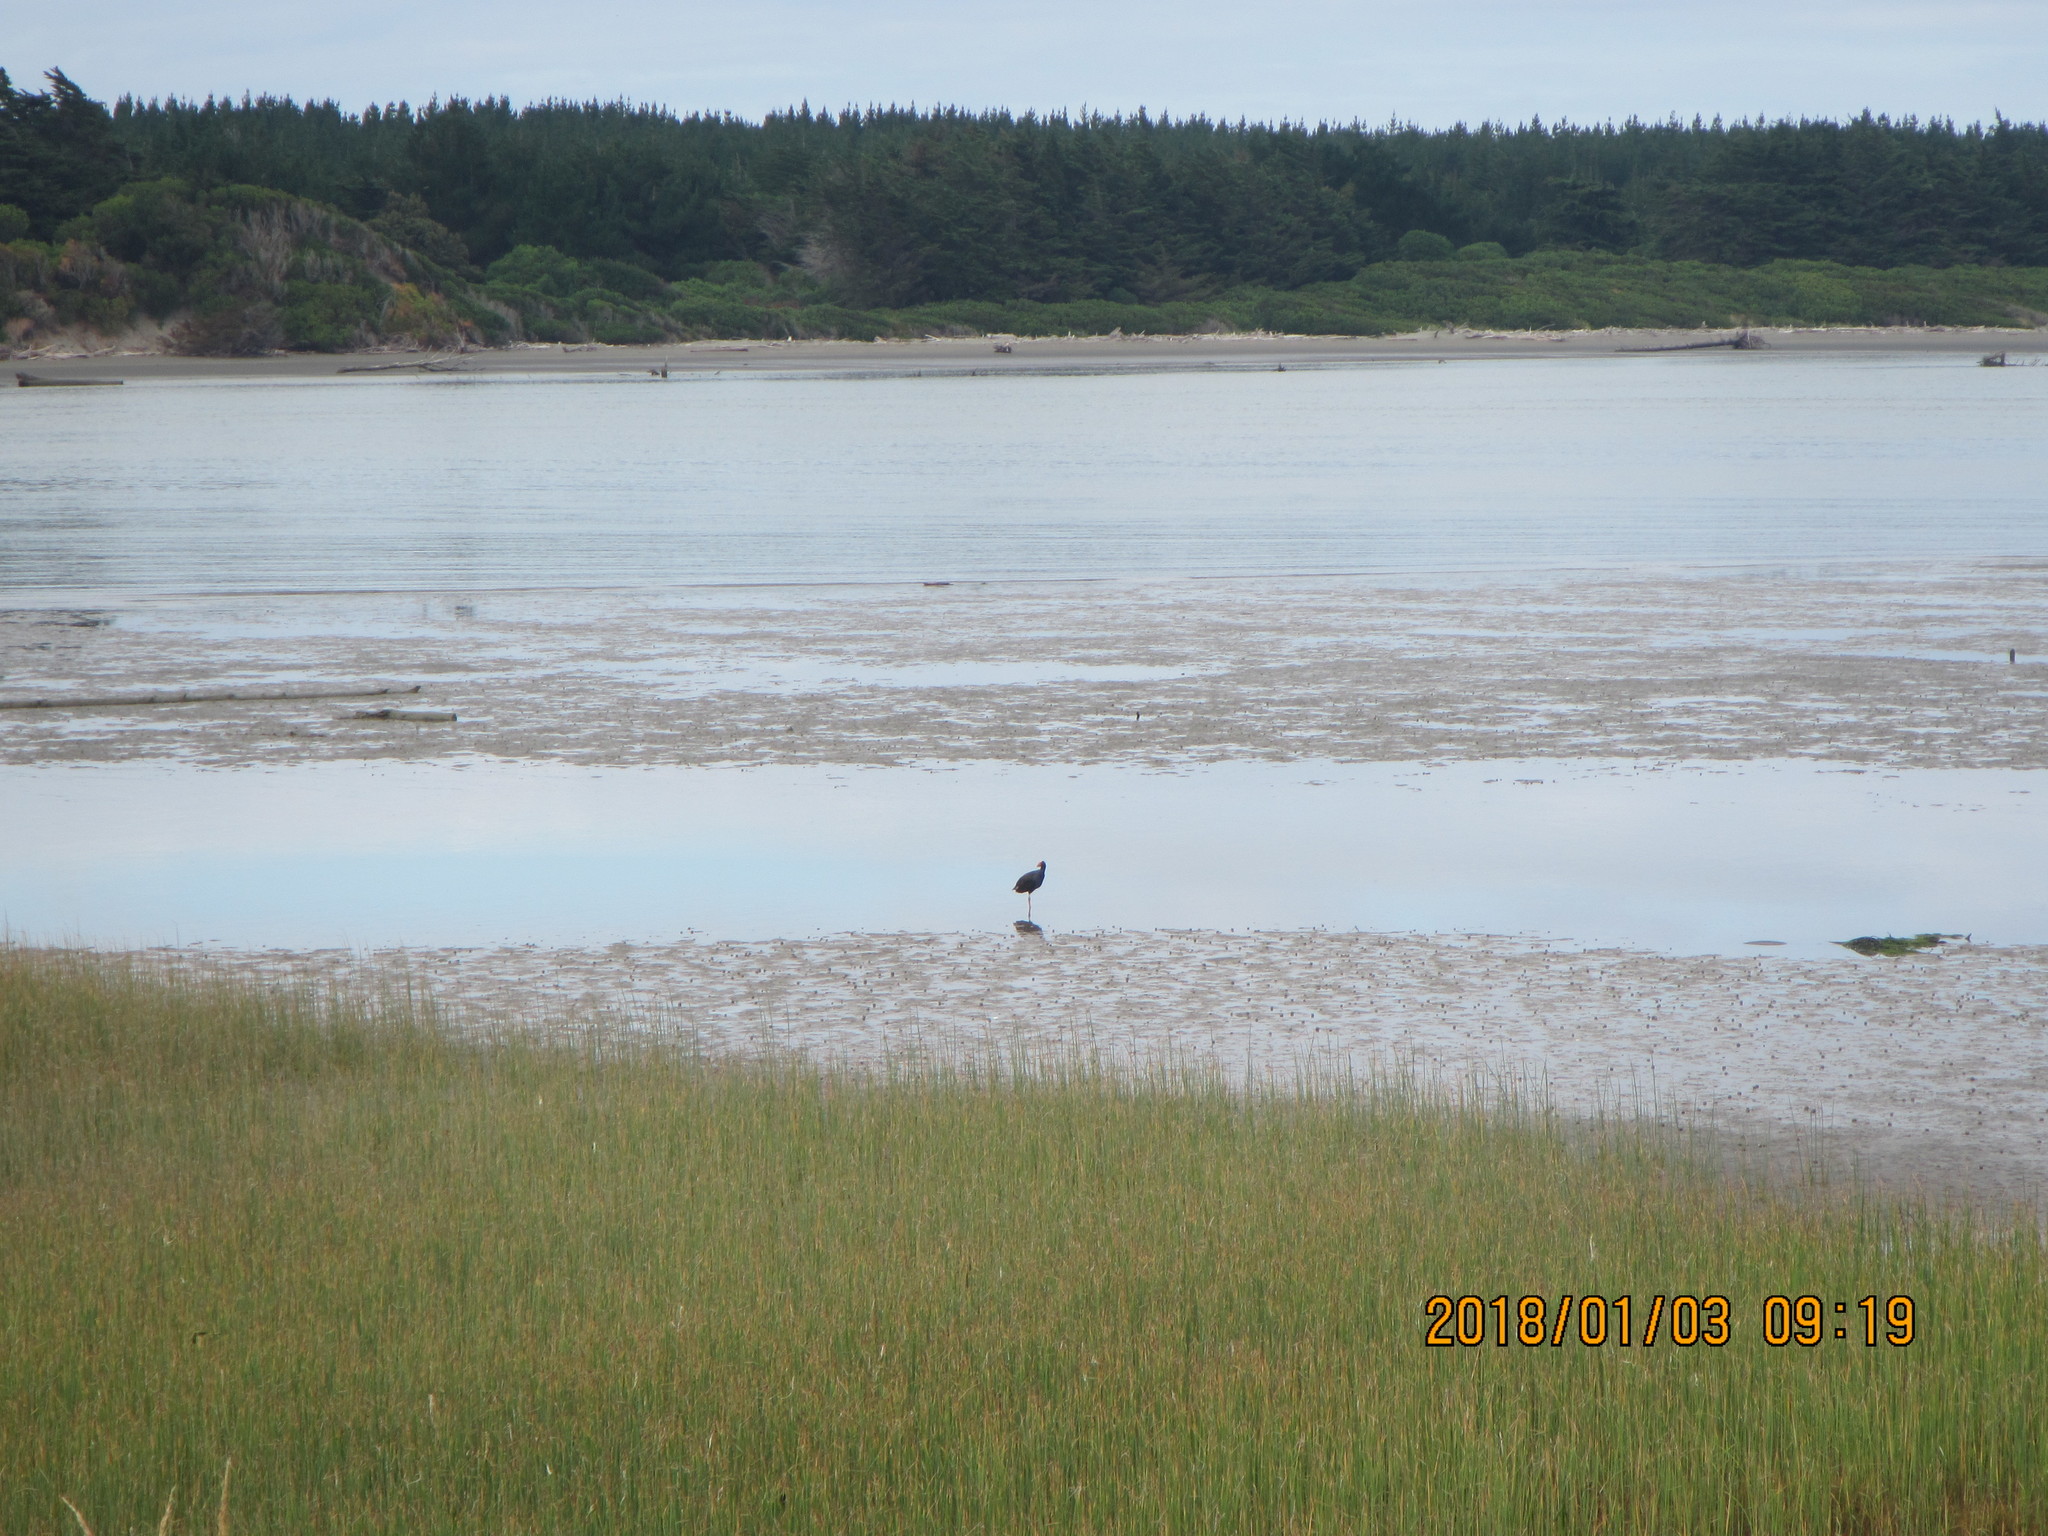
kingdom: Animalia
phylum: Chordata
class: Aves
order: Gruiformes
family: Rallidae
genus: Porphyrio
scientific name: Porphyrio melanotus
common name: Australasian swamphen
